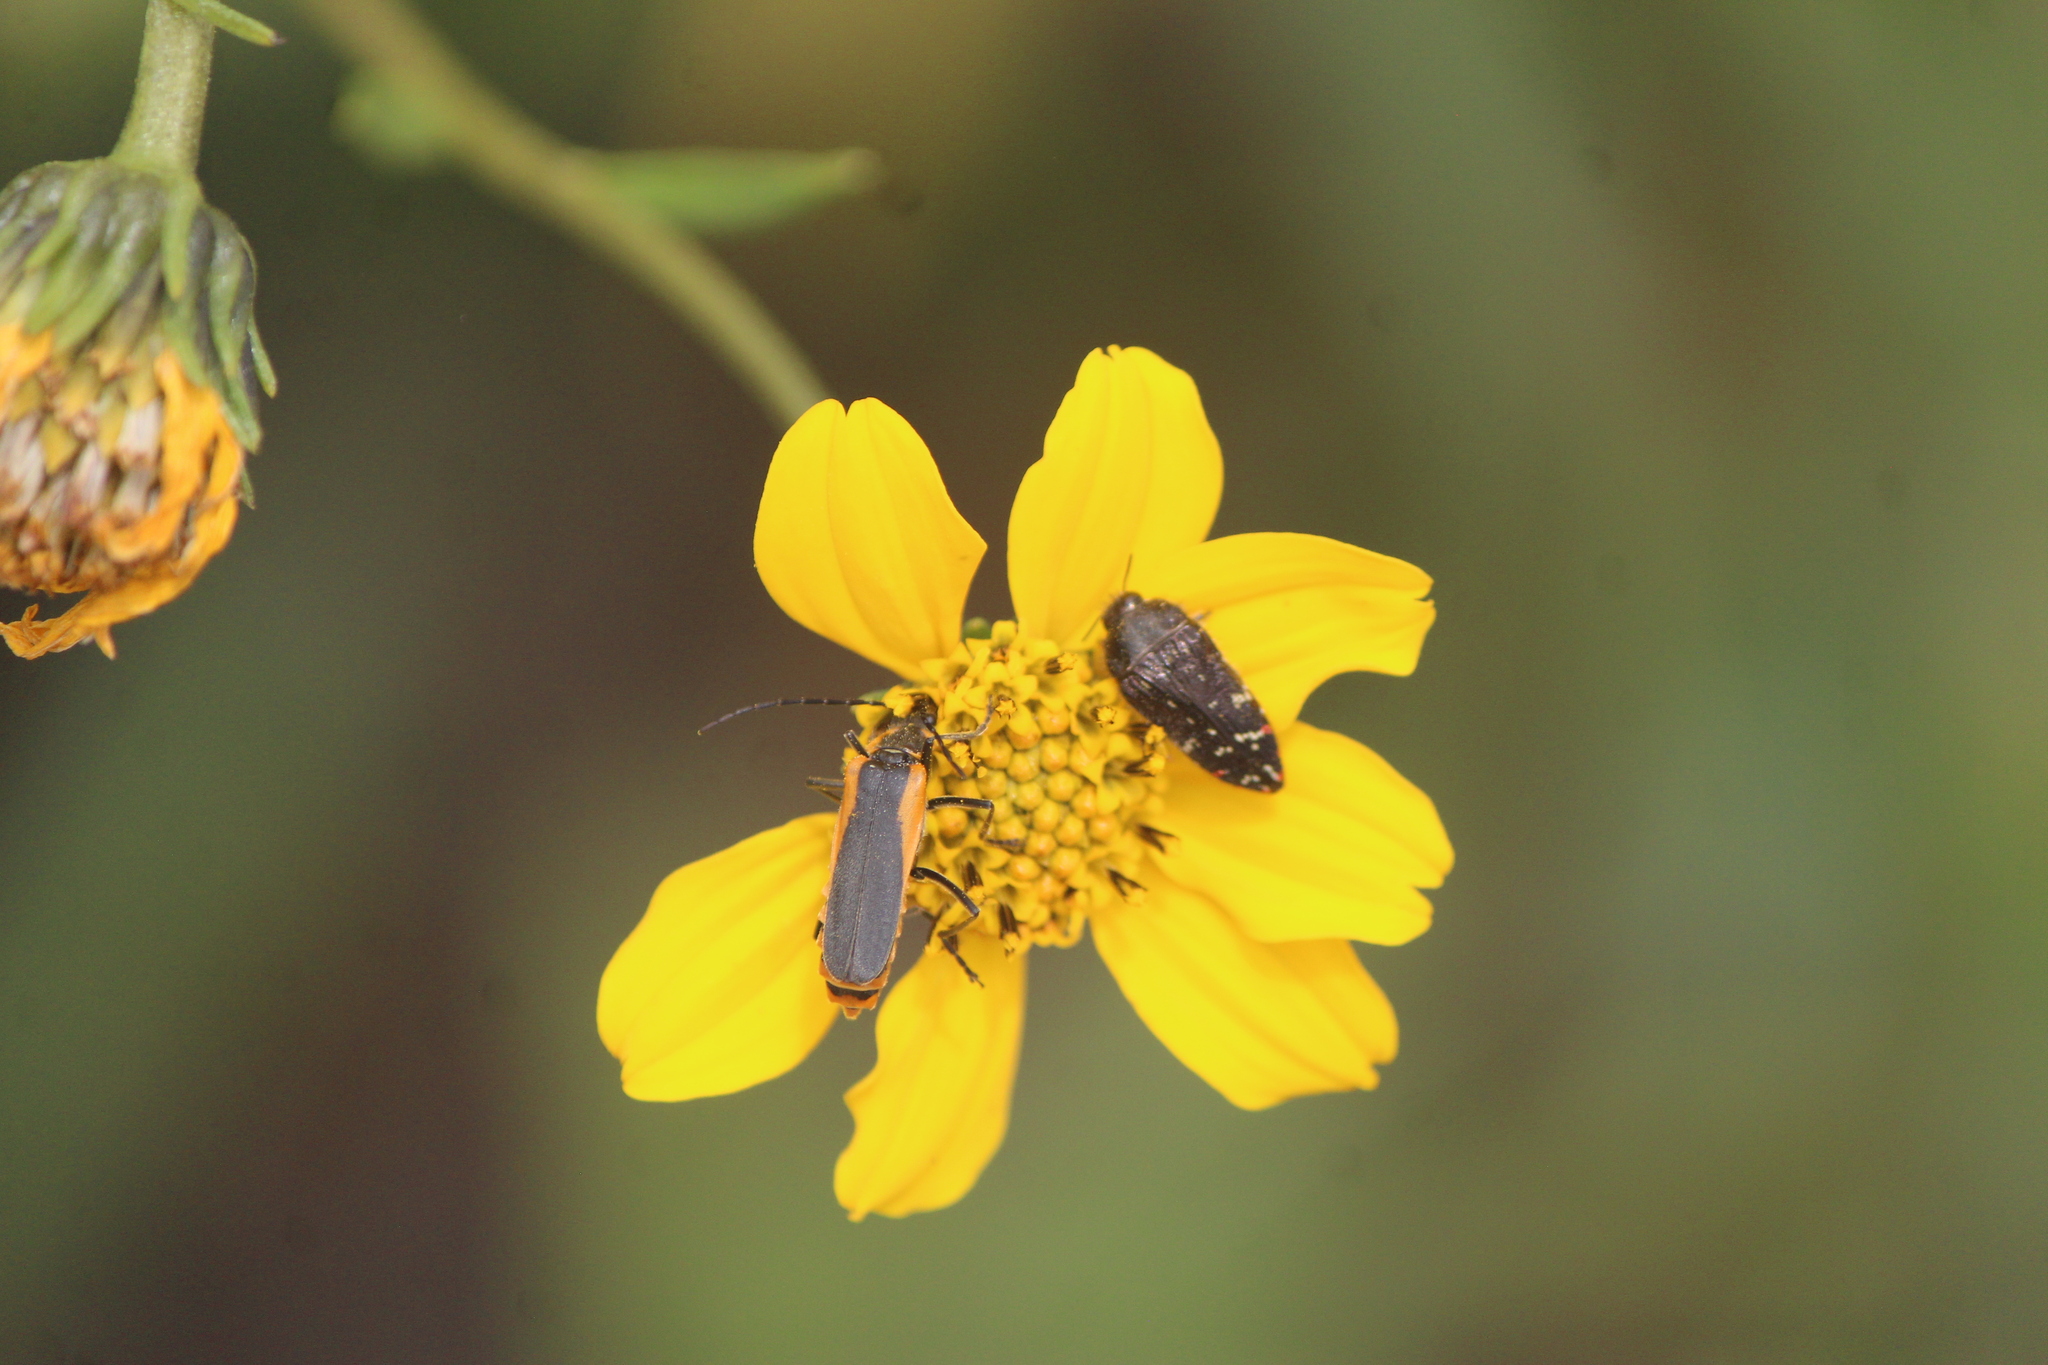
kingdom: Animalia
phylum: Arthropoda
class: Insecta
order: Coleoptera
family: Cantharidae
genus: Chauliognathus
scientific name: Chauliognathus limbicollis
